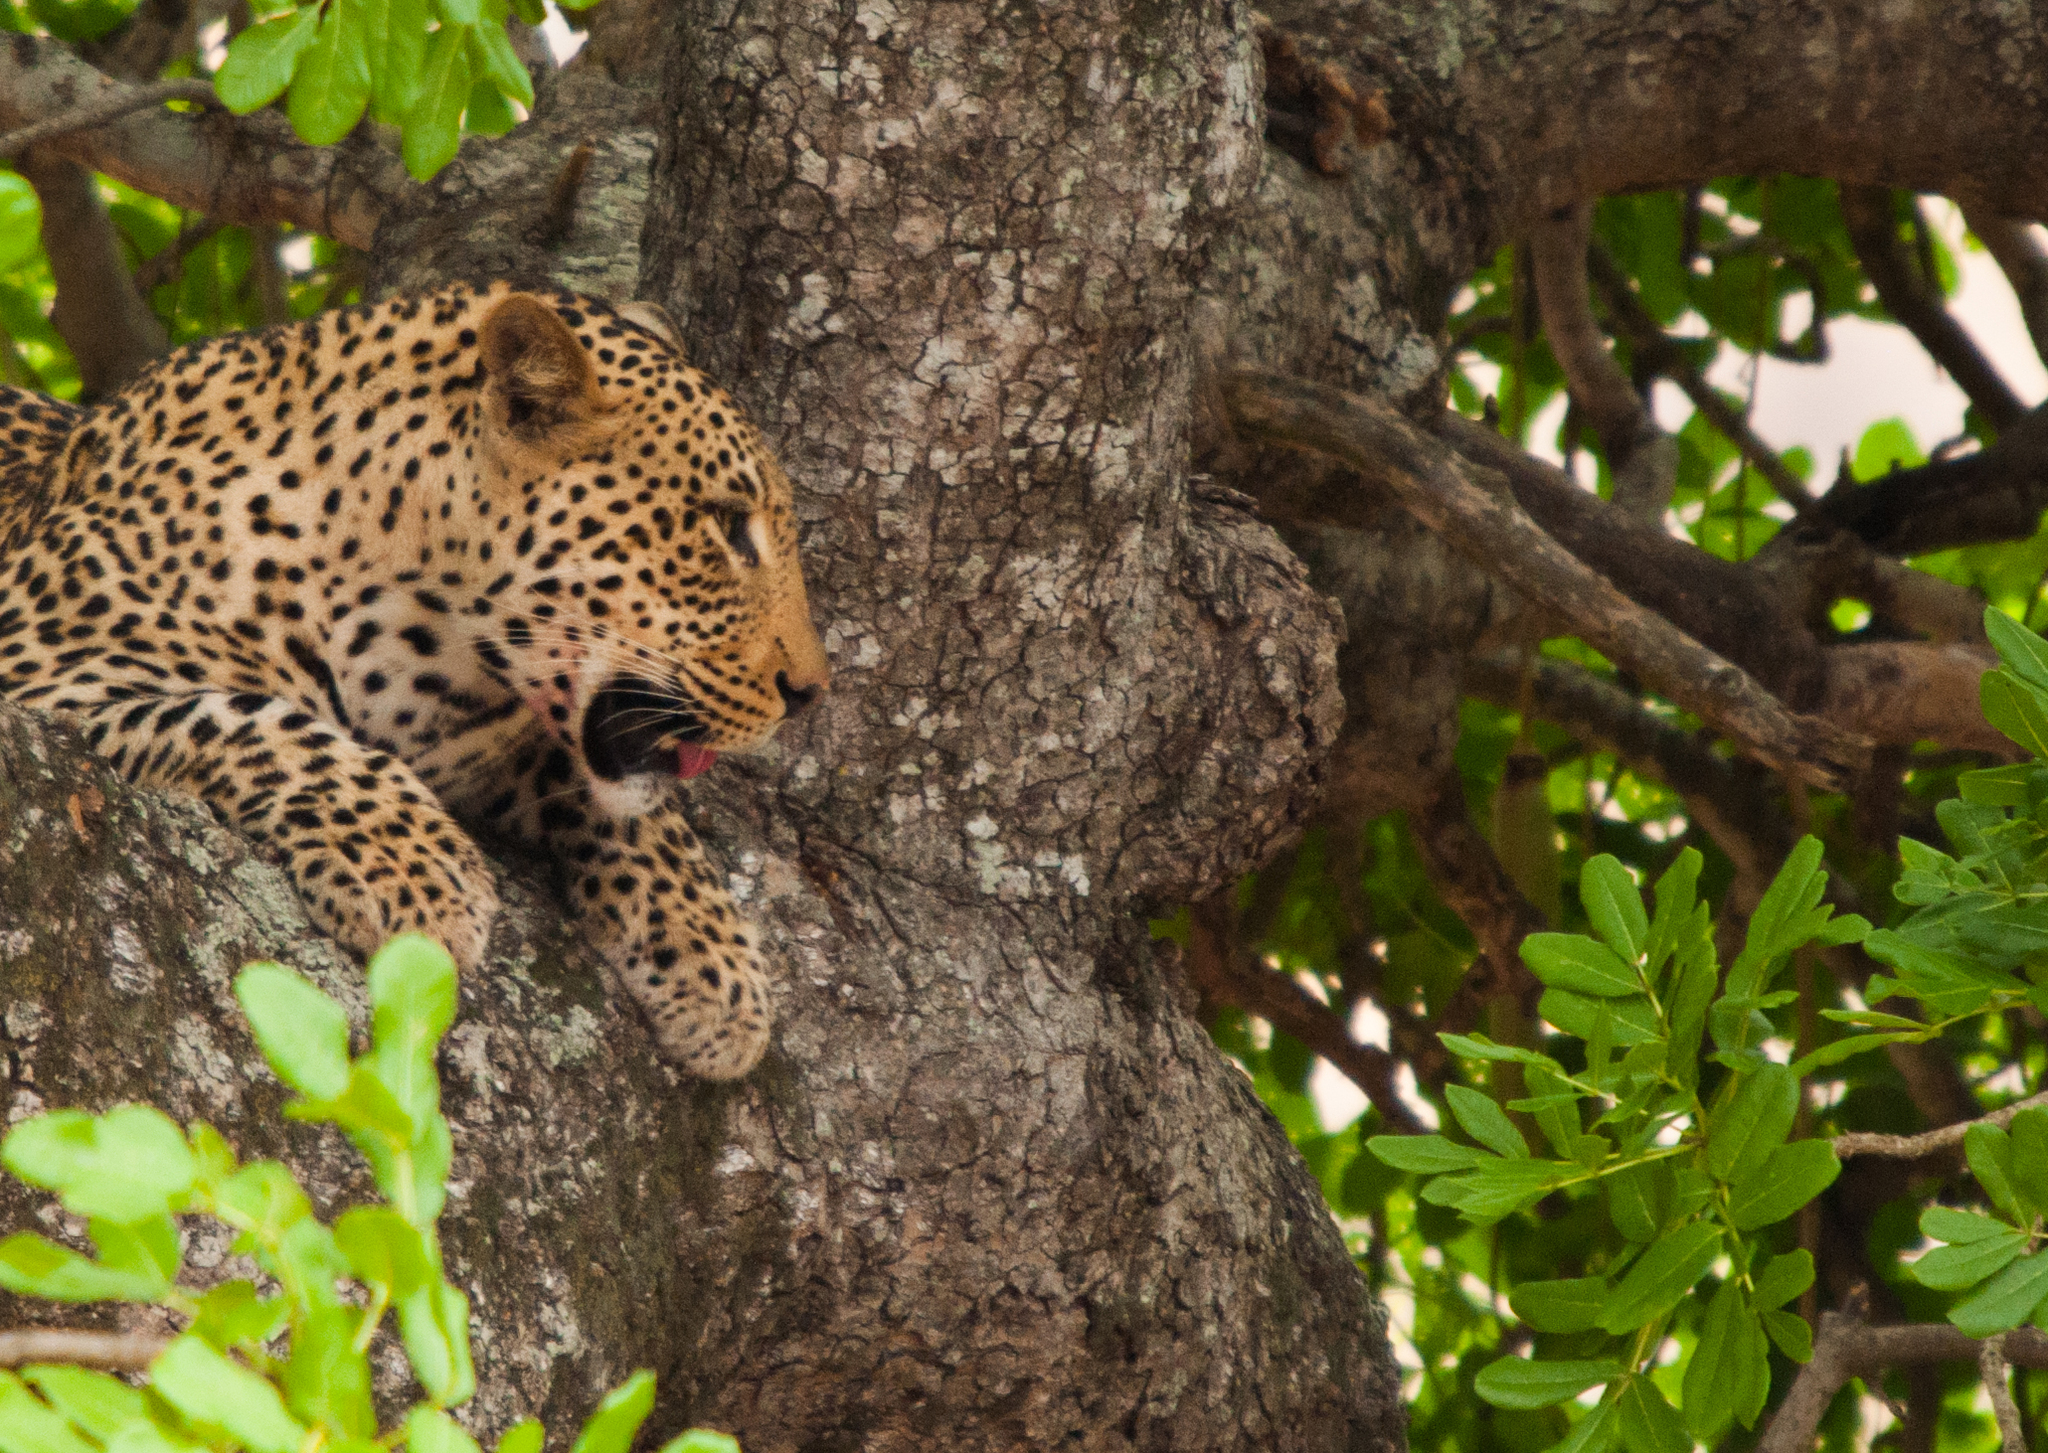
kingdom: Animalia
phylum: Chordata
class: Mammalia
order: Carnivora
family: Felidae
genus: Panthera
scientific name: Panthera pardus
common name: Leopard
